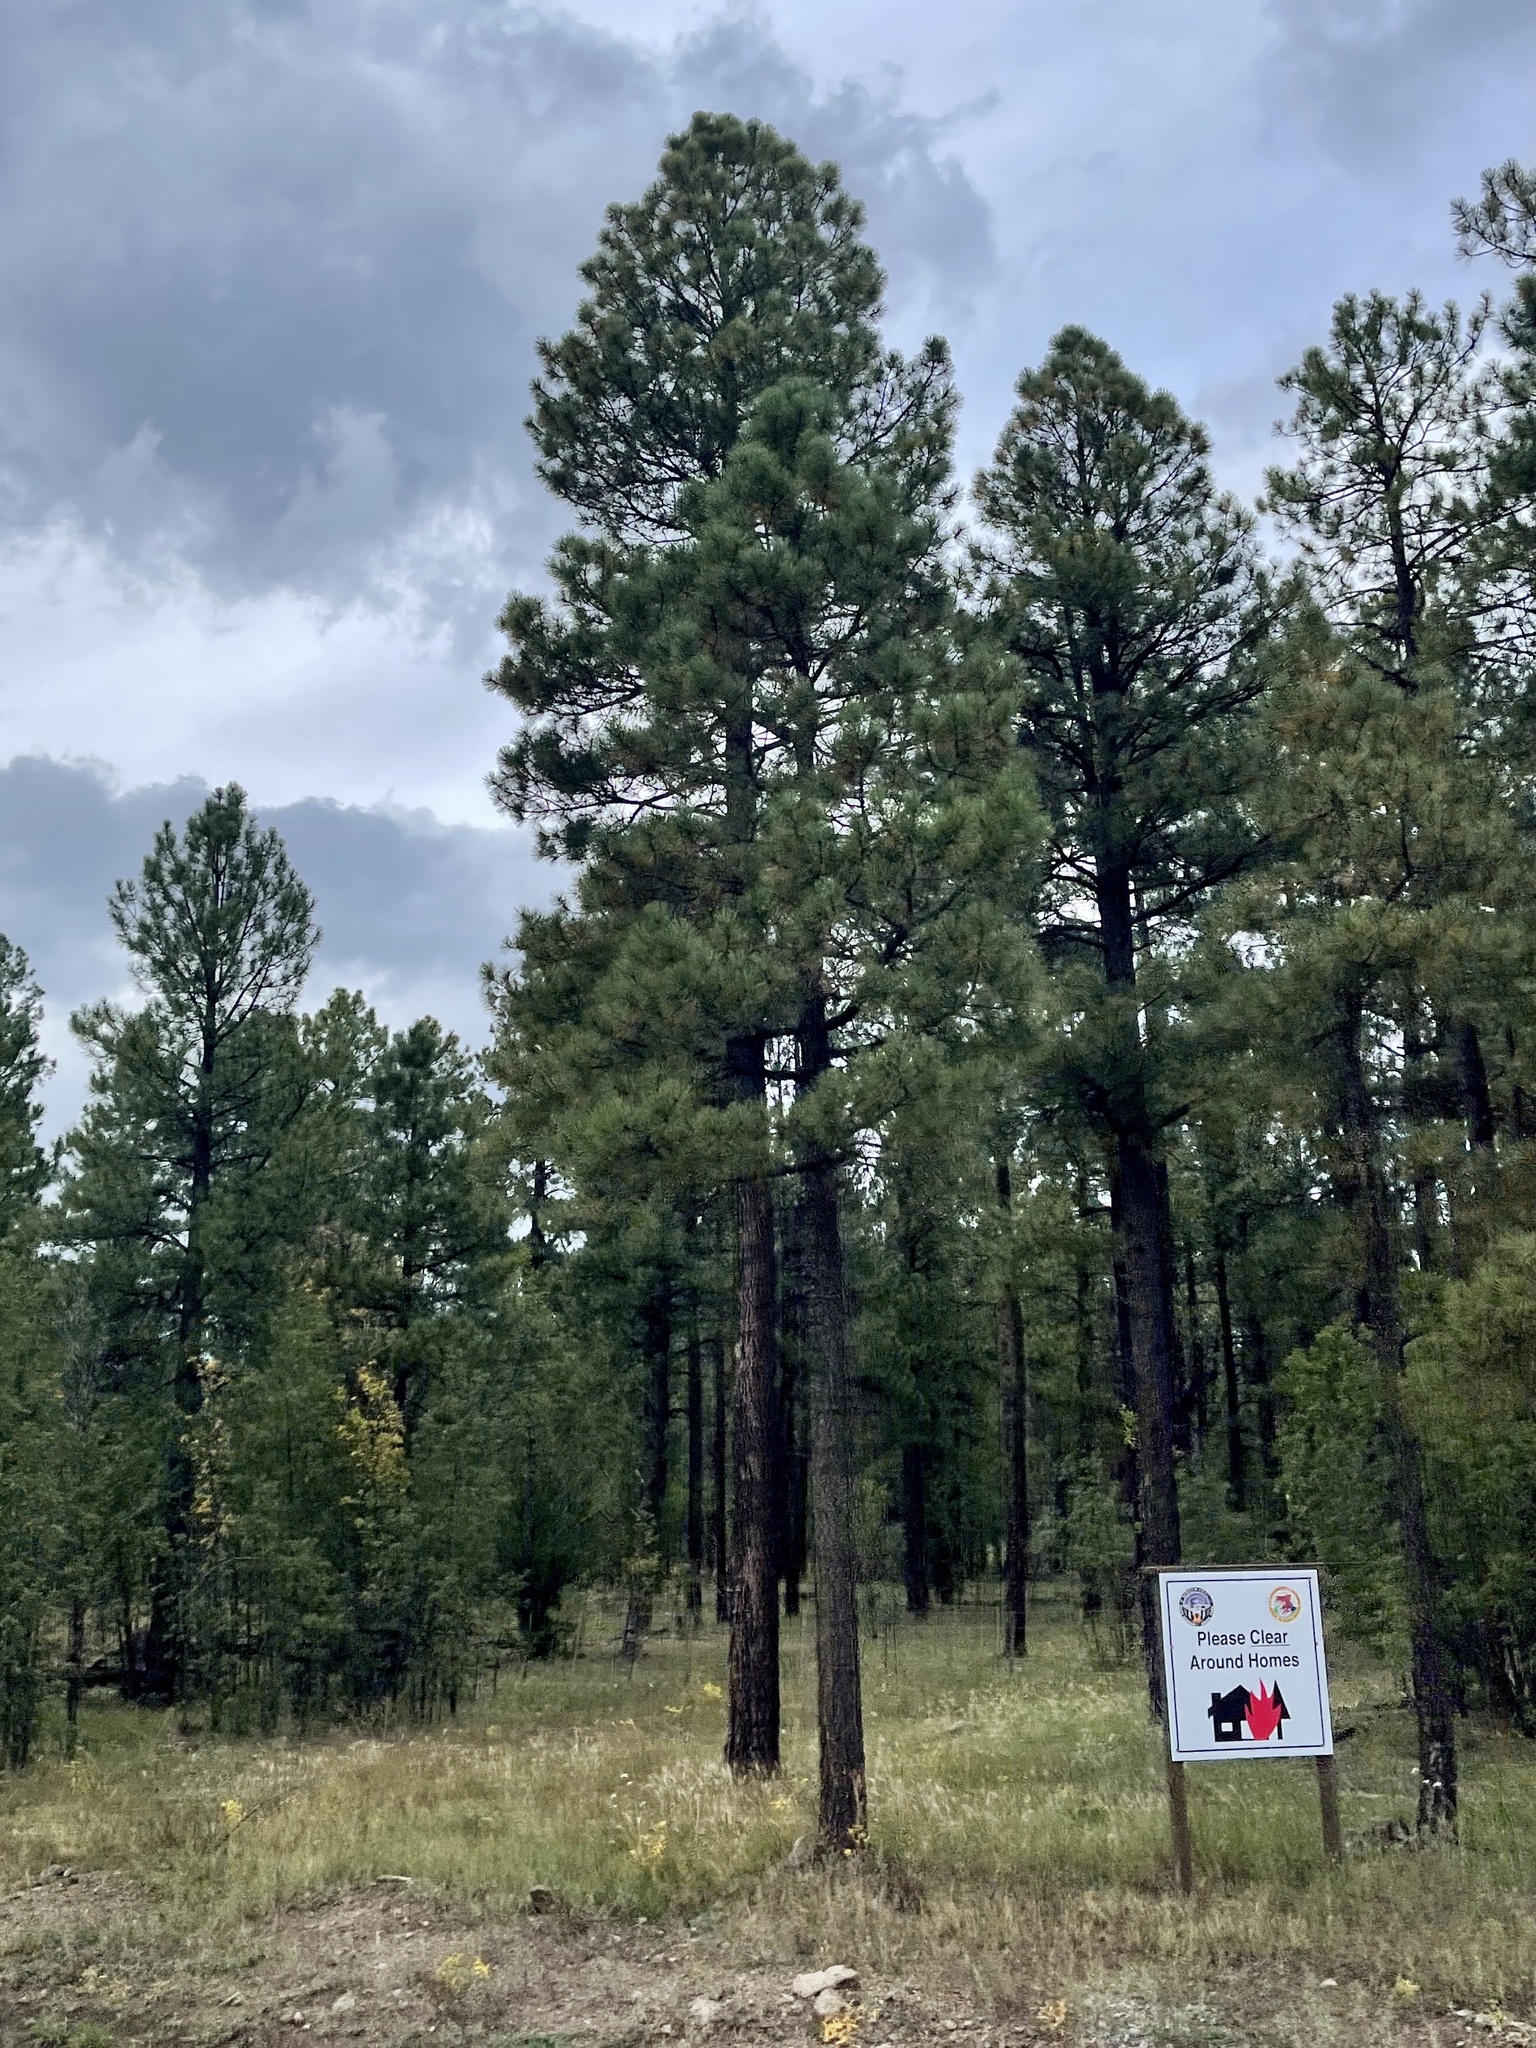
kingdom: Plantae
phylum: Tracheophyta
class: Pinopsida
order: Pinales
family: Pinaceae
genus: Pinus
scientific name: Pinus ponderosa
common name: Western yellow-pine
